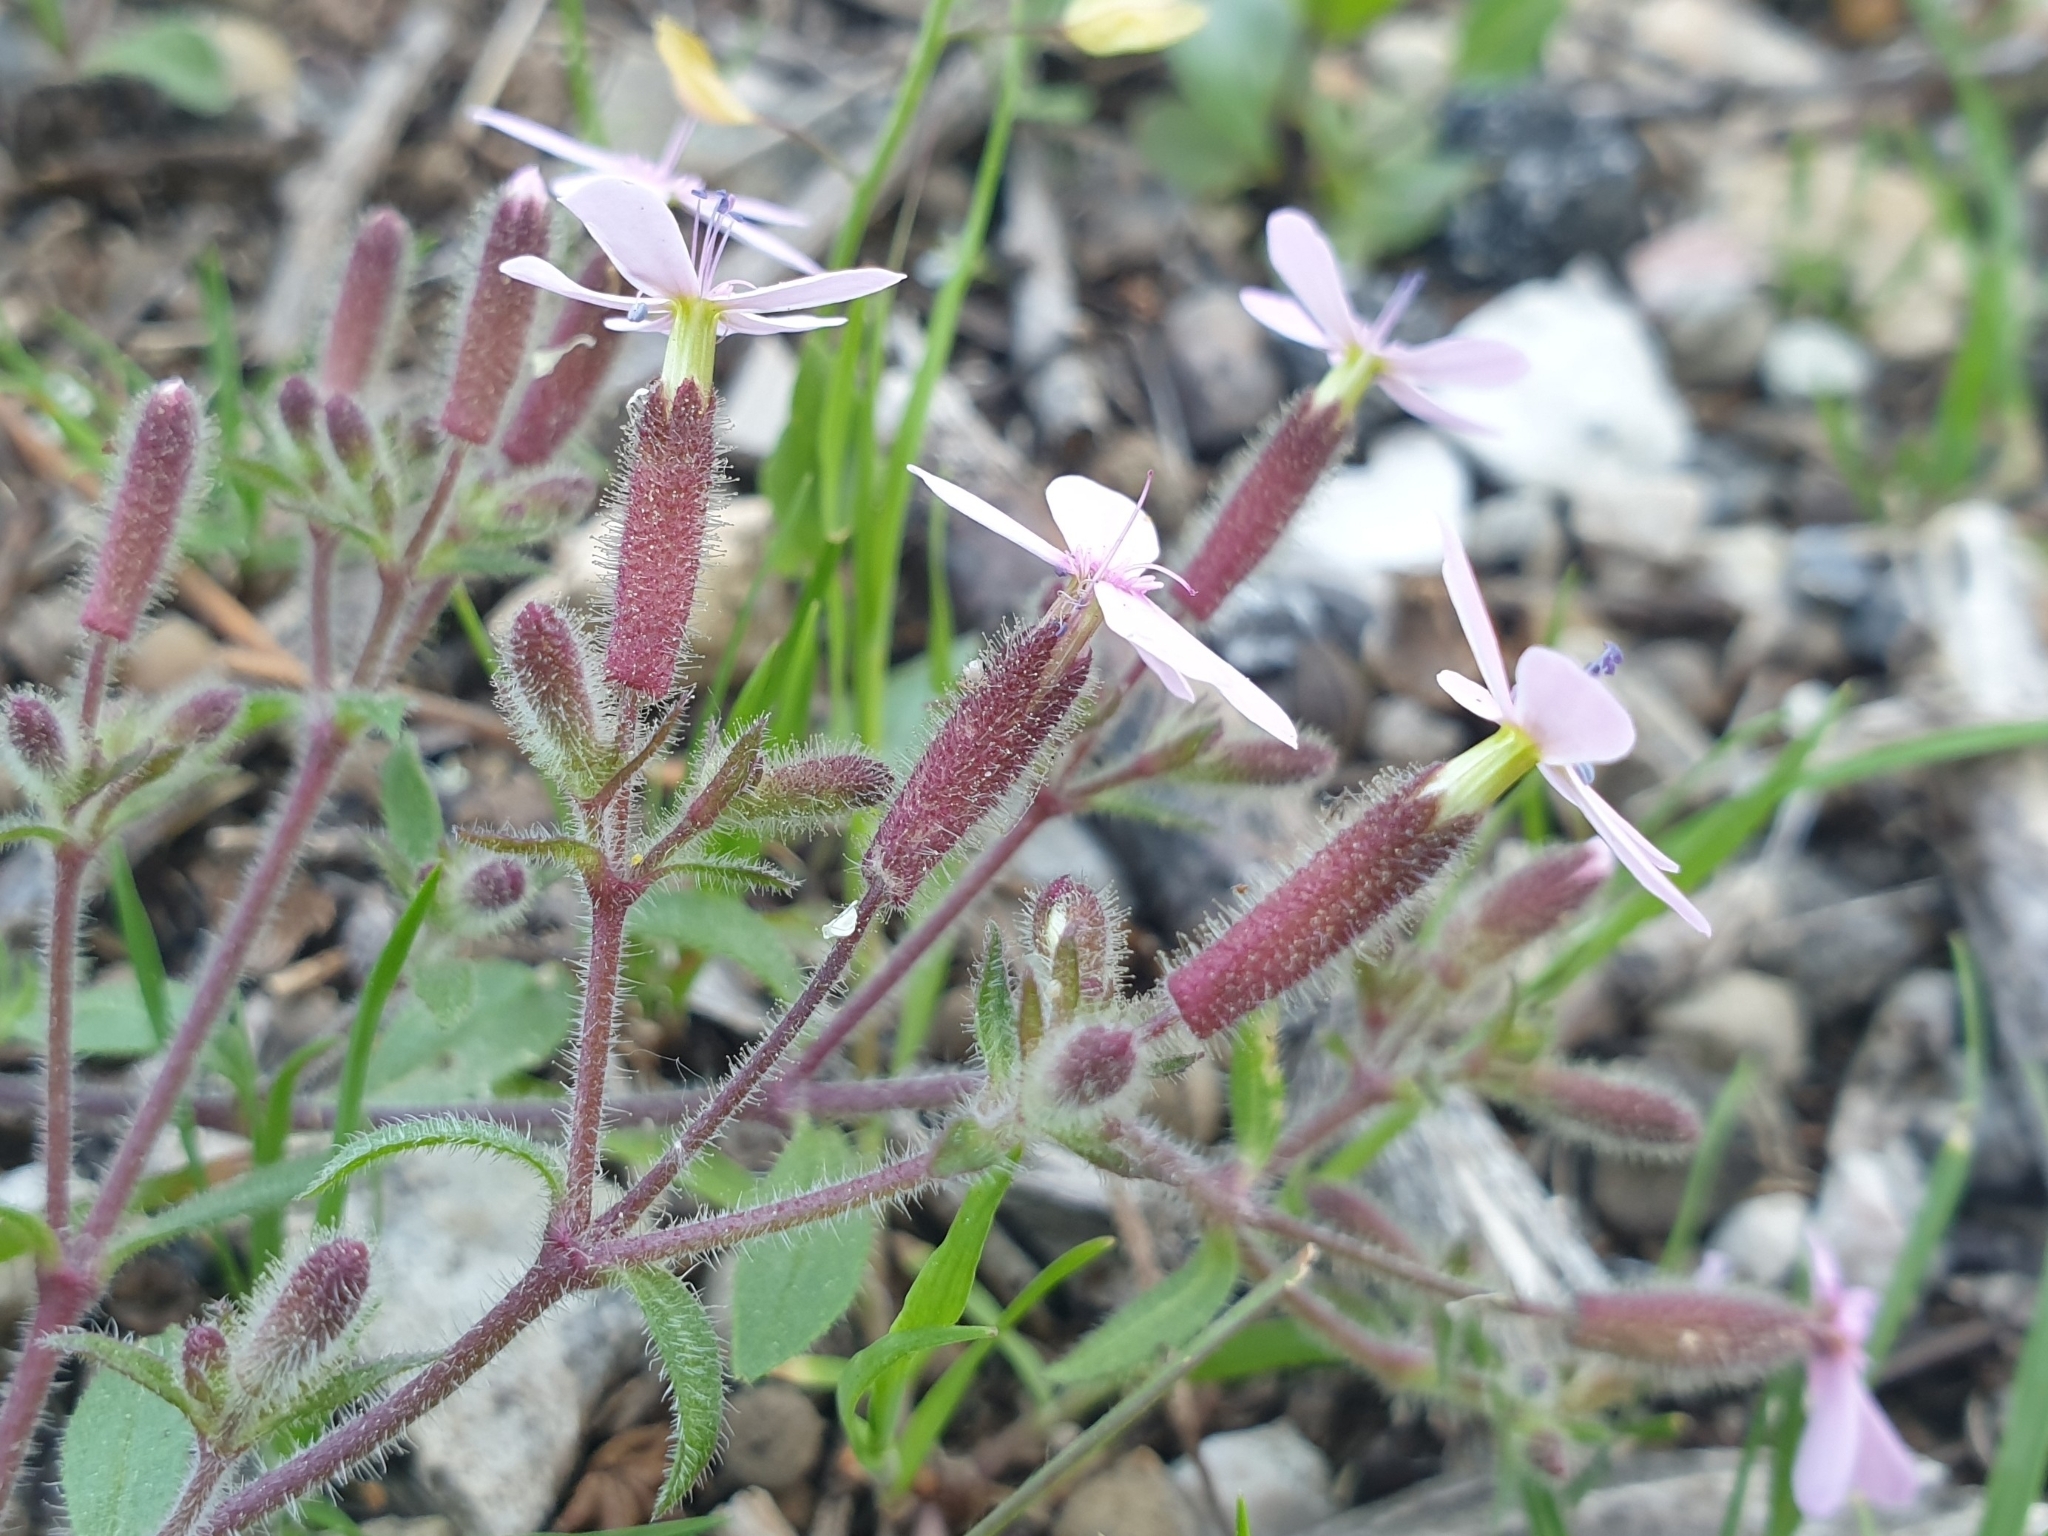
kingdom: Plantae
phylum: Tracheophyta
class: Magnoliopsida
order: Caryophyllales
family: Caryophyllaceae
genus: Saponaria
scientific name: Saponaria ocymoides
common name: Rock soapwort
